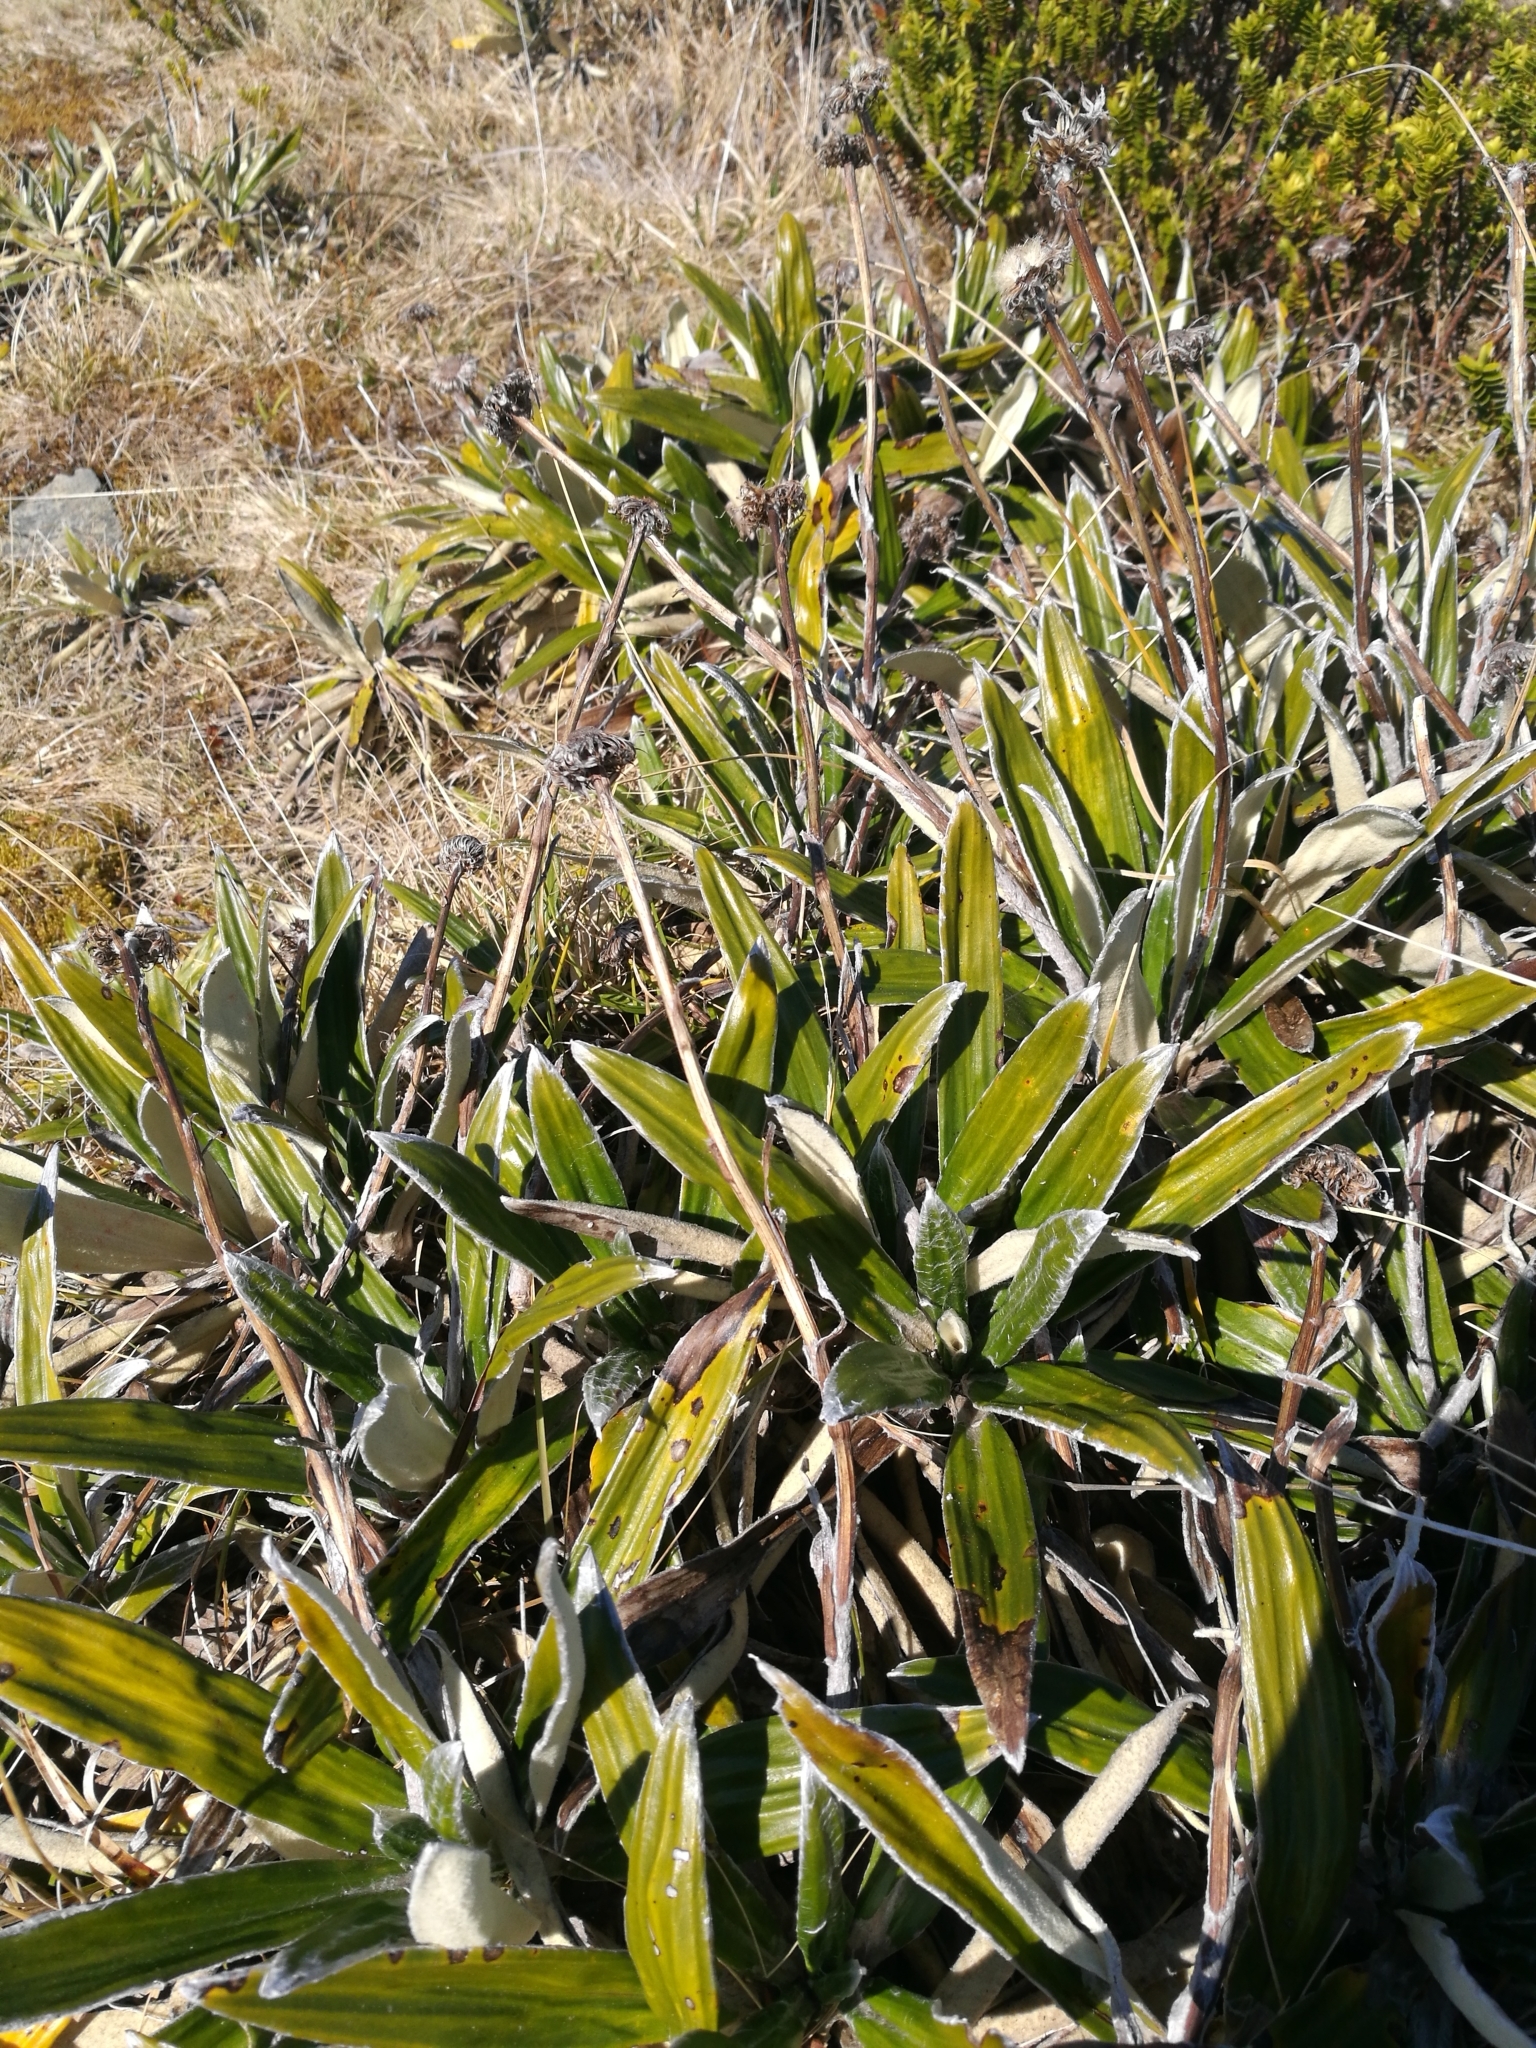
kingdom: Plantae
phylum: Tracheophyta
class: Magnoliopsida
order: Asterales
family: Asteraceae
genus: Celmisia
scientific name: Celmisia spectabilis
